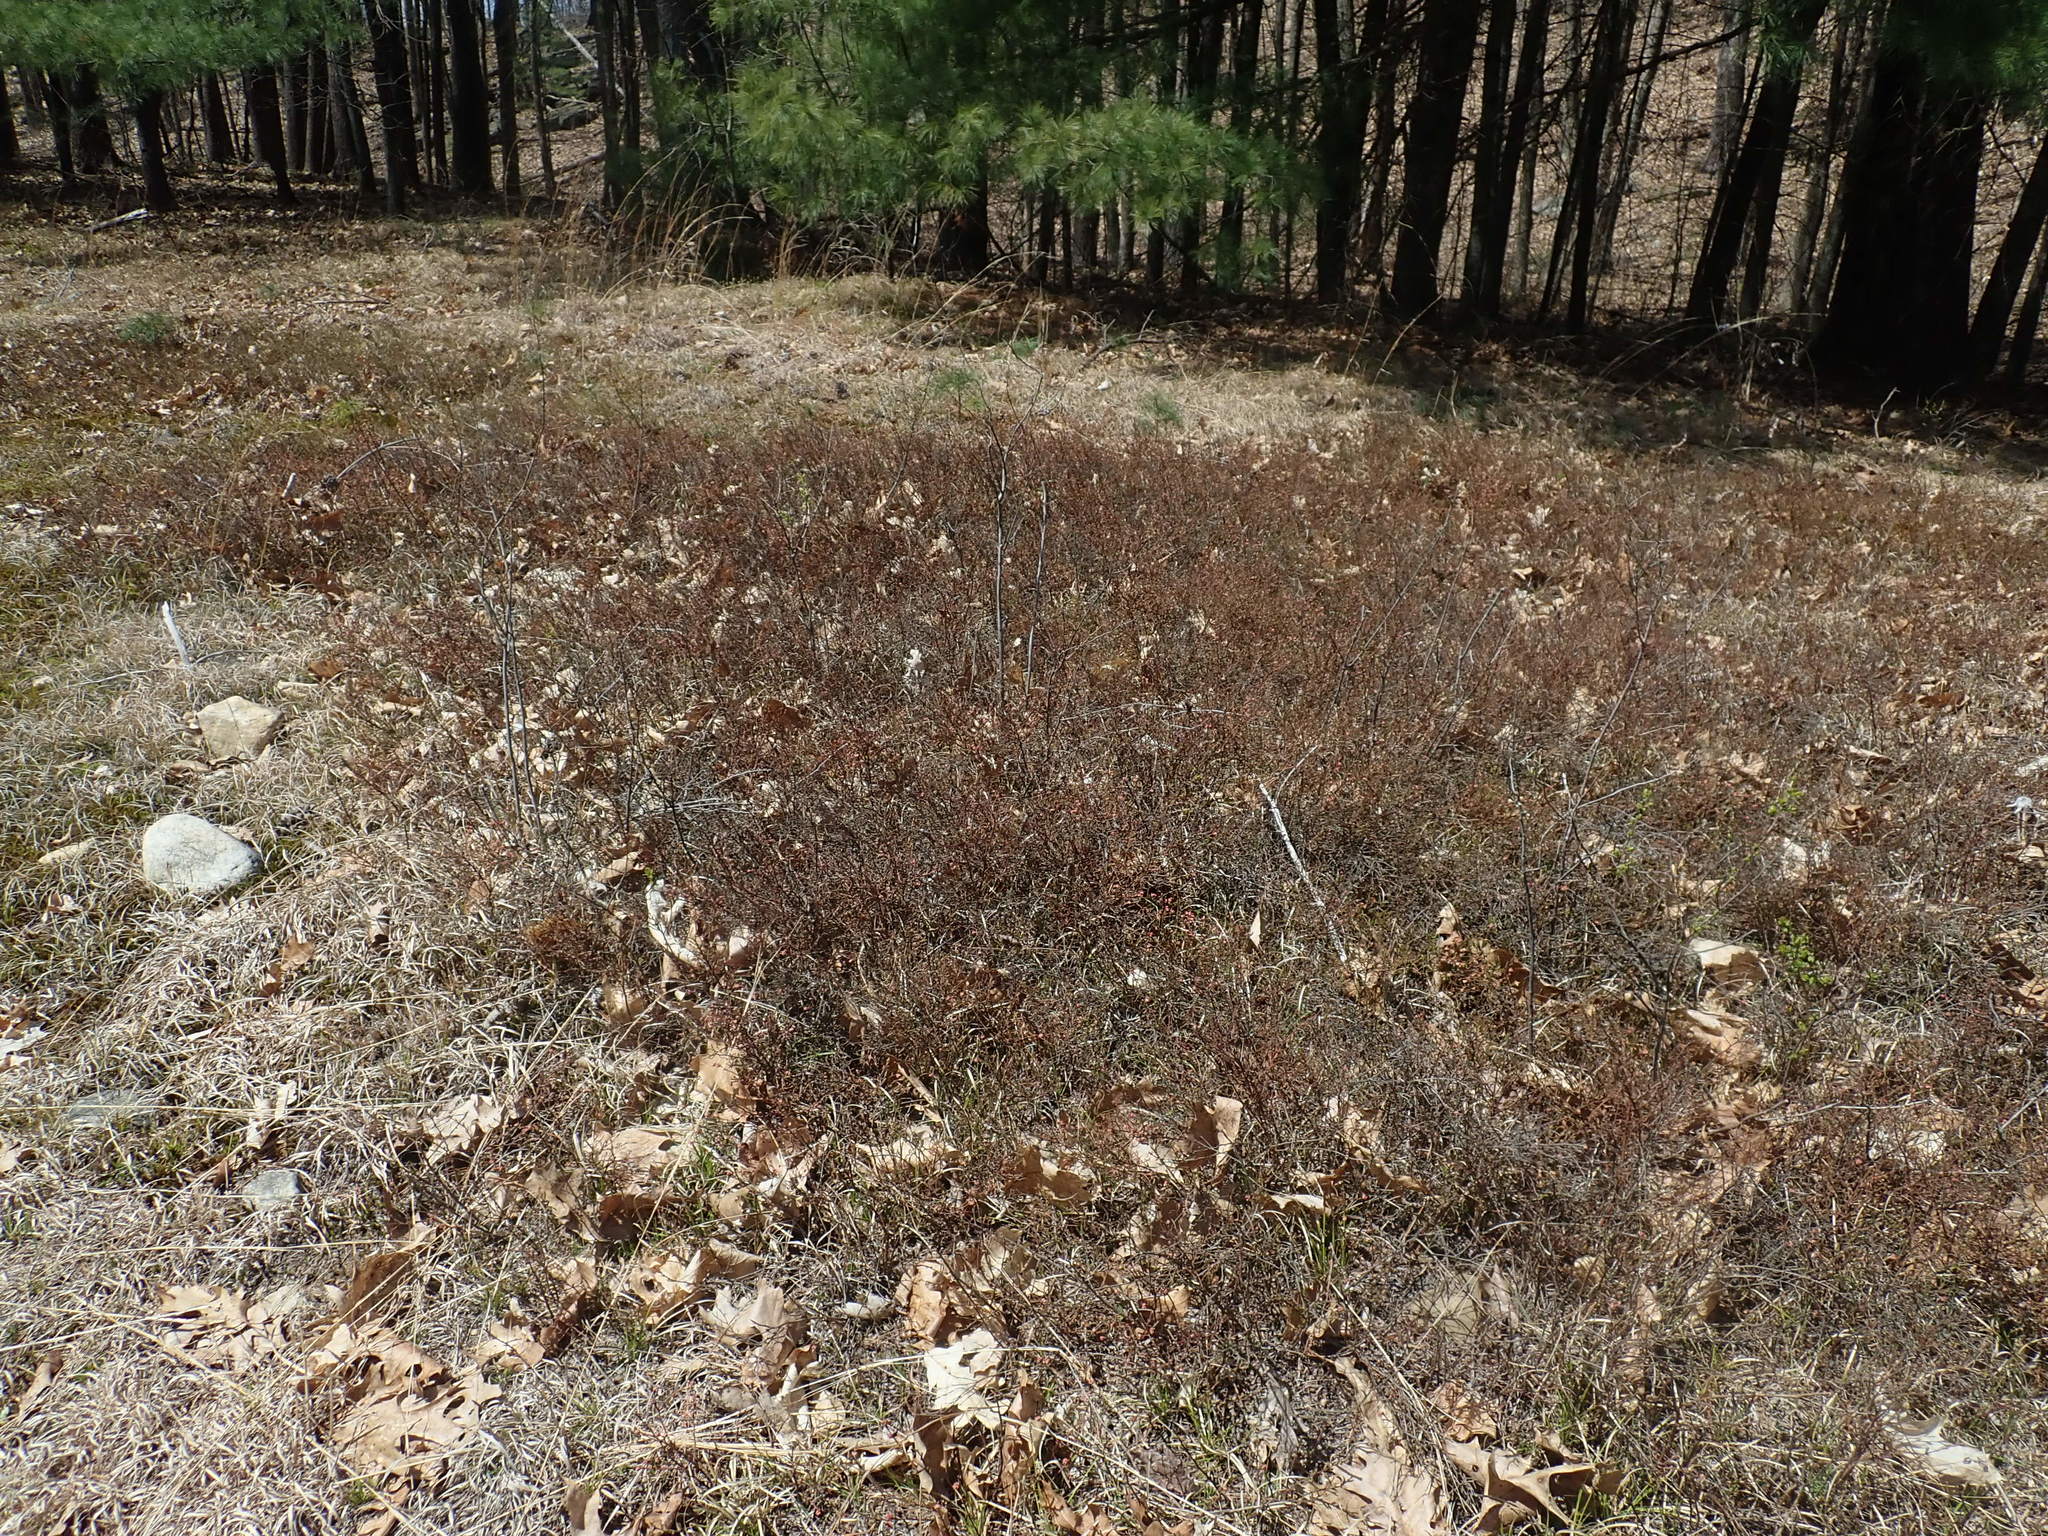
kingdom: Plantae
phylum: Tracheophyta
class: Magnoliopsida
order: Ericales
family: Ericaceae
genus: Vaccinium
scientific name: Vaccinium angustifolium
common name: Early lowbush blueberry
